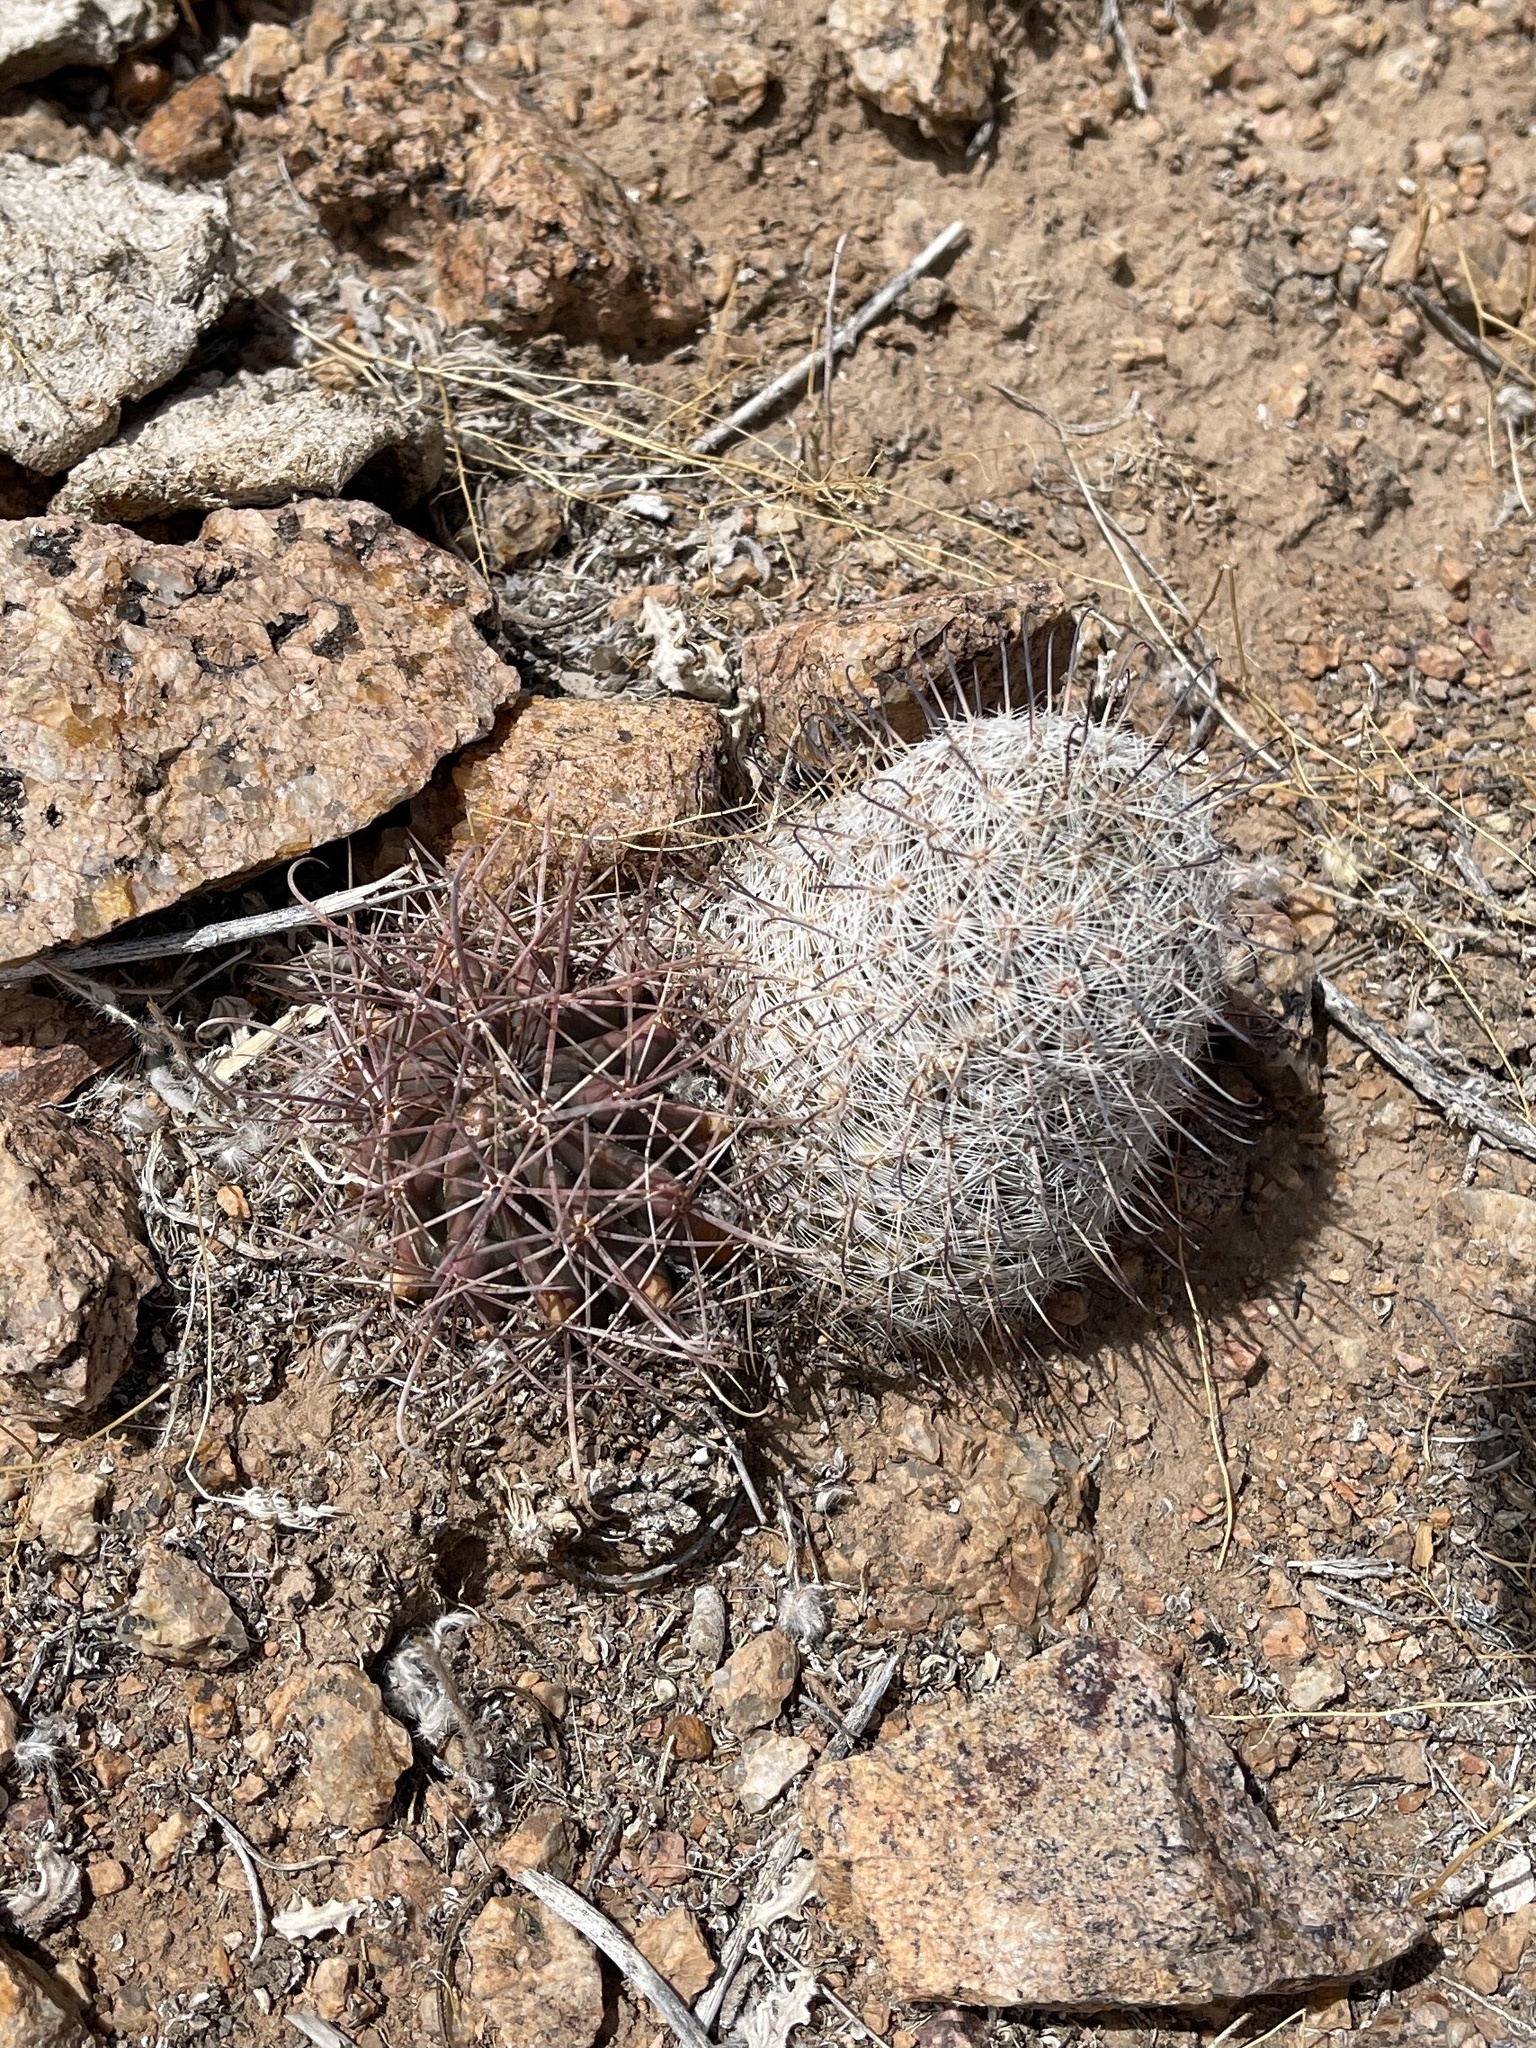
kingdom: Plantae
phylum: Tracheophyta
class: Magnoliopsida
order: Caryophyllales
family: Cactaceae
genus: Cochemiea
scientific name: Cochemiea grahamii
